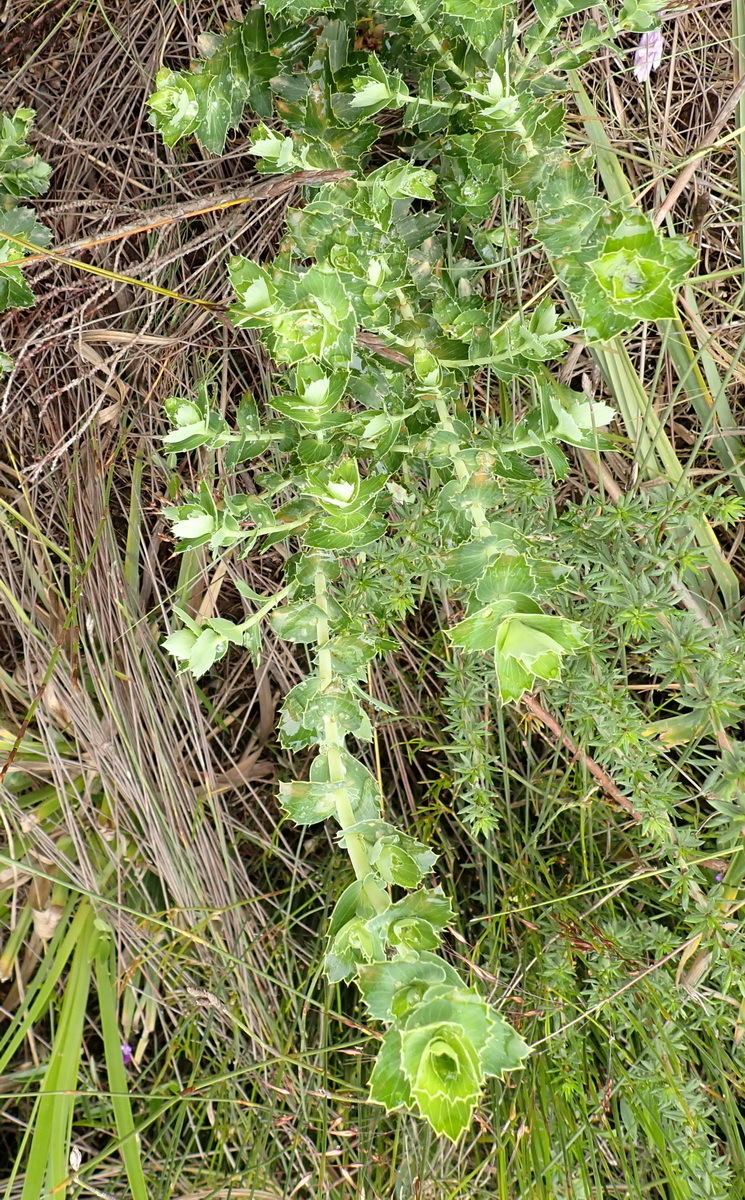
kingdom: Plantae
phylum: Tracheophyta
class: Magnoliopsida
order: Rosales
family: Rosaceae
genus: Cliffortia
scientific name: Cliffortia ilicifolia
